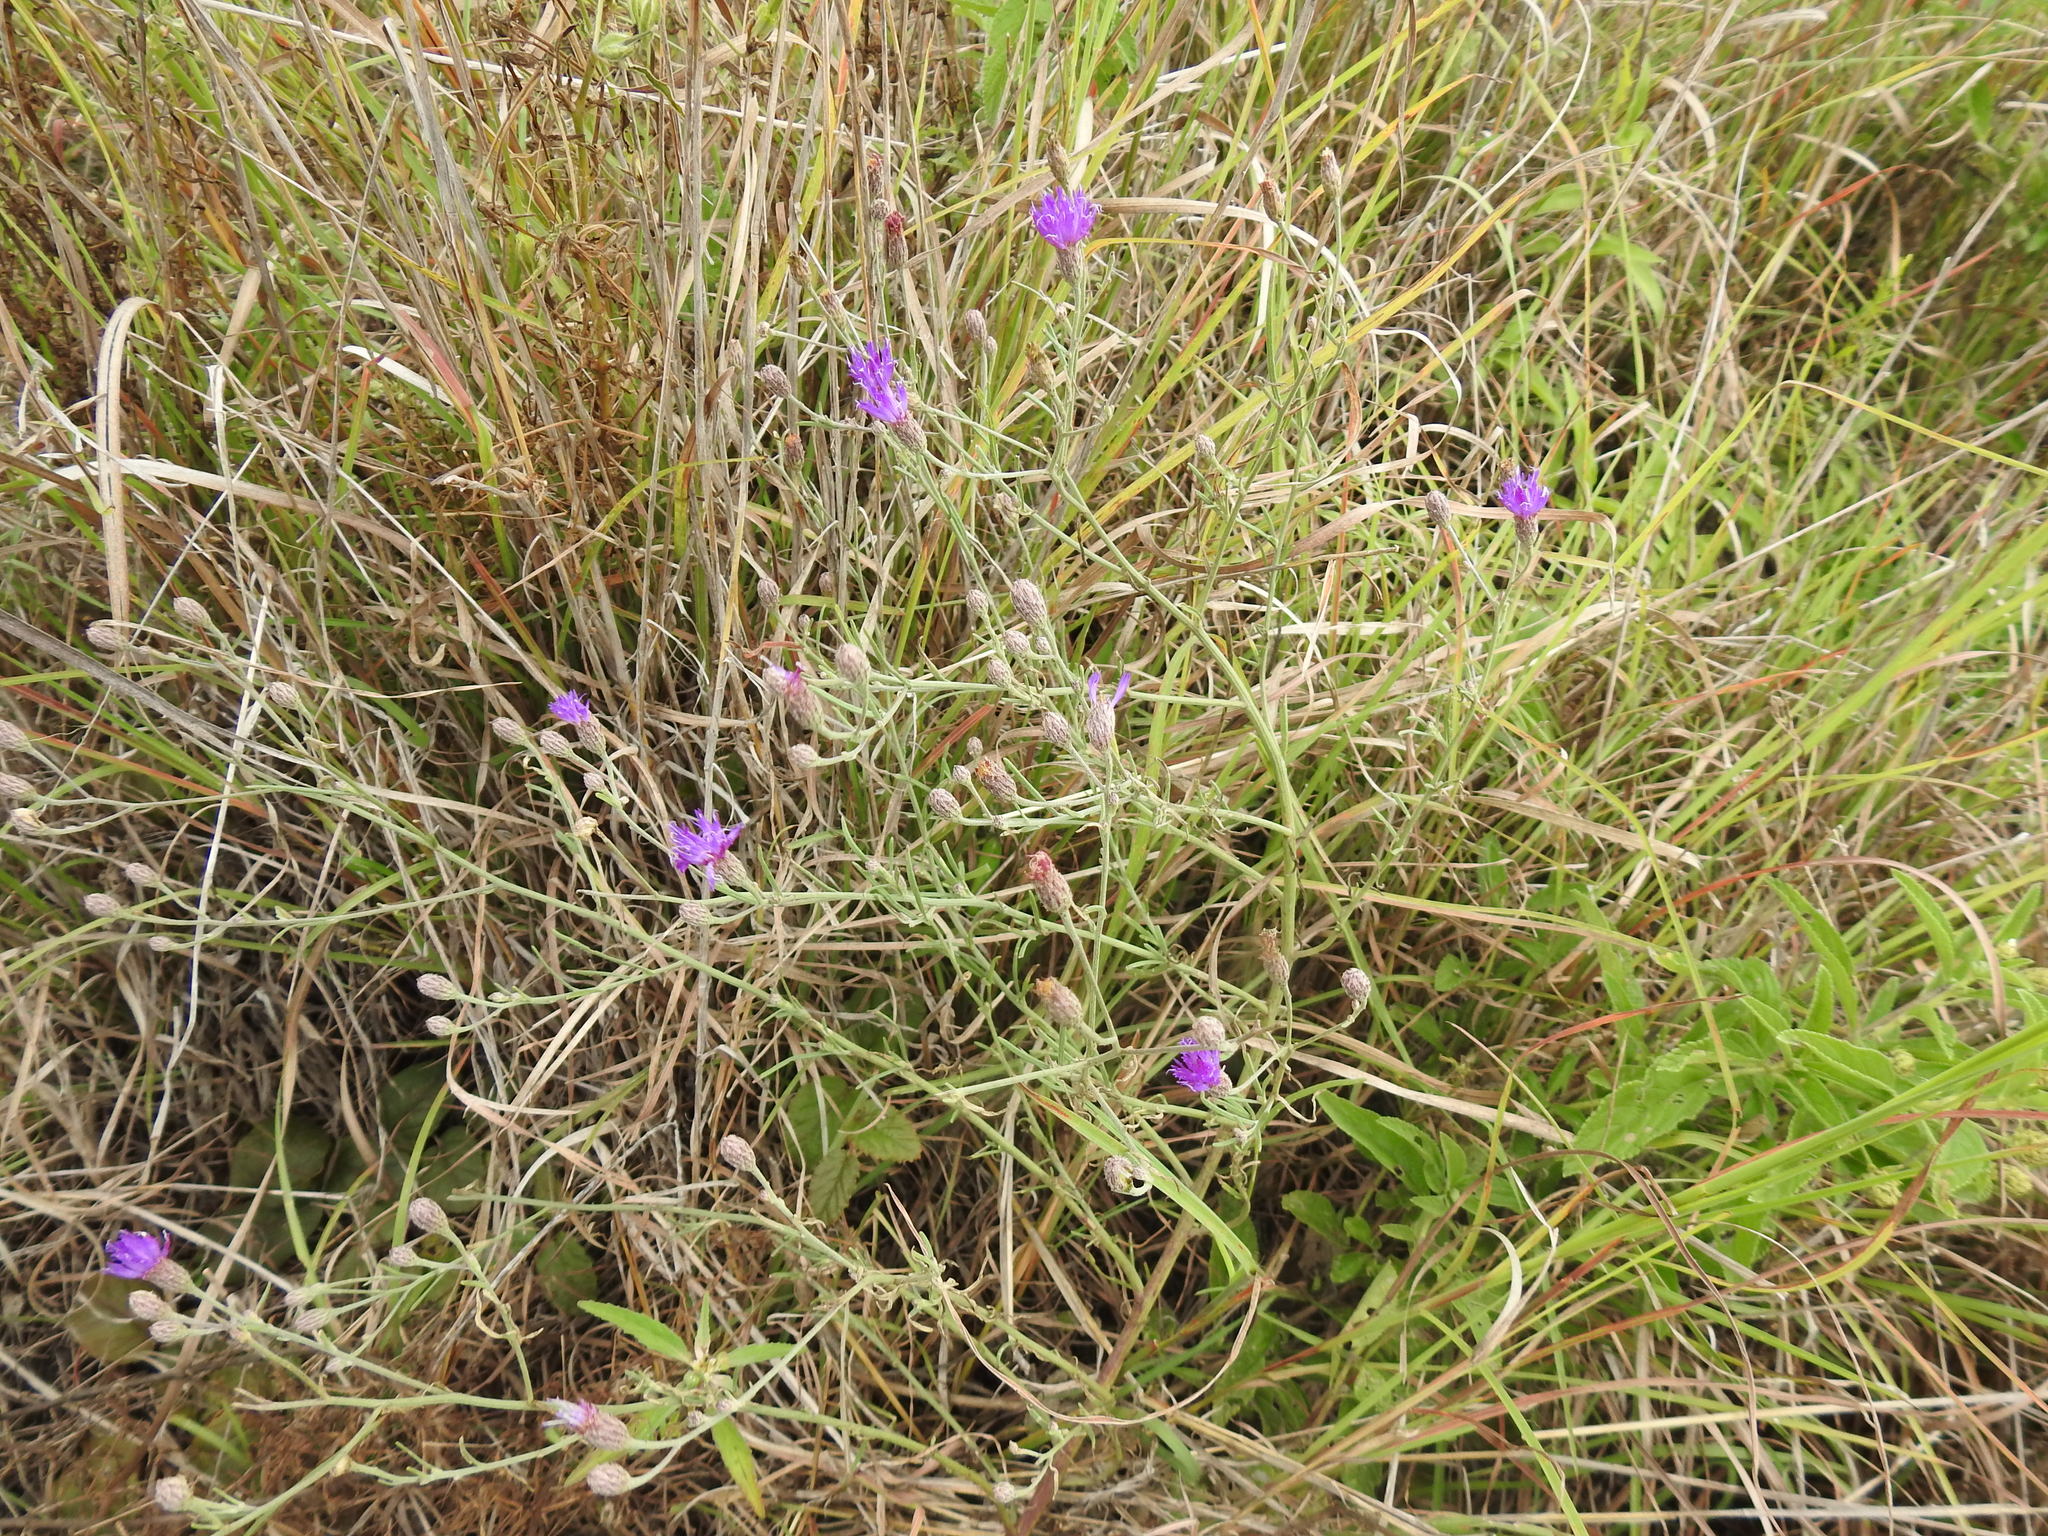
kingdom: Plantae
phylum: Tracheophyta
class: Magnoliopsida
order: Asterales
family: Asteraceae
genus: Crystallopollen
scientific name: Crystallopollen angustifolium
